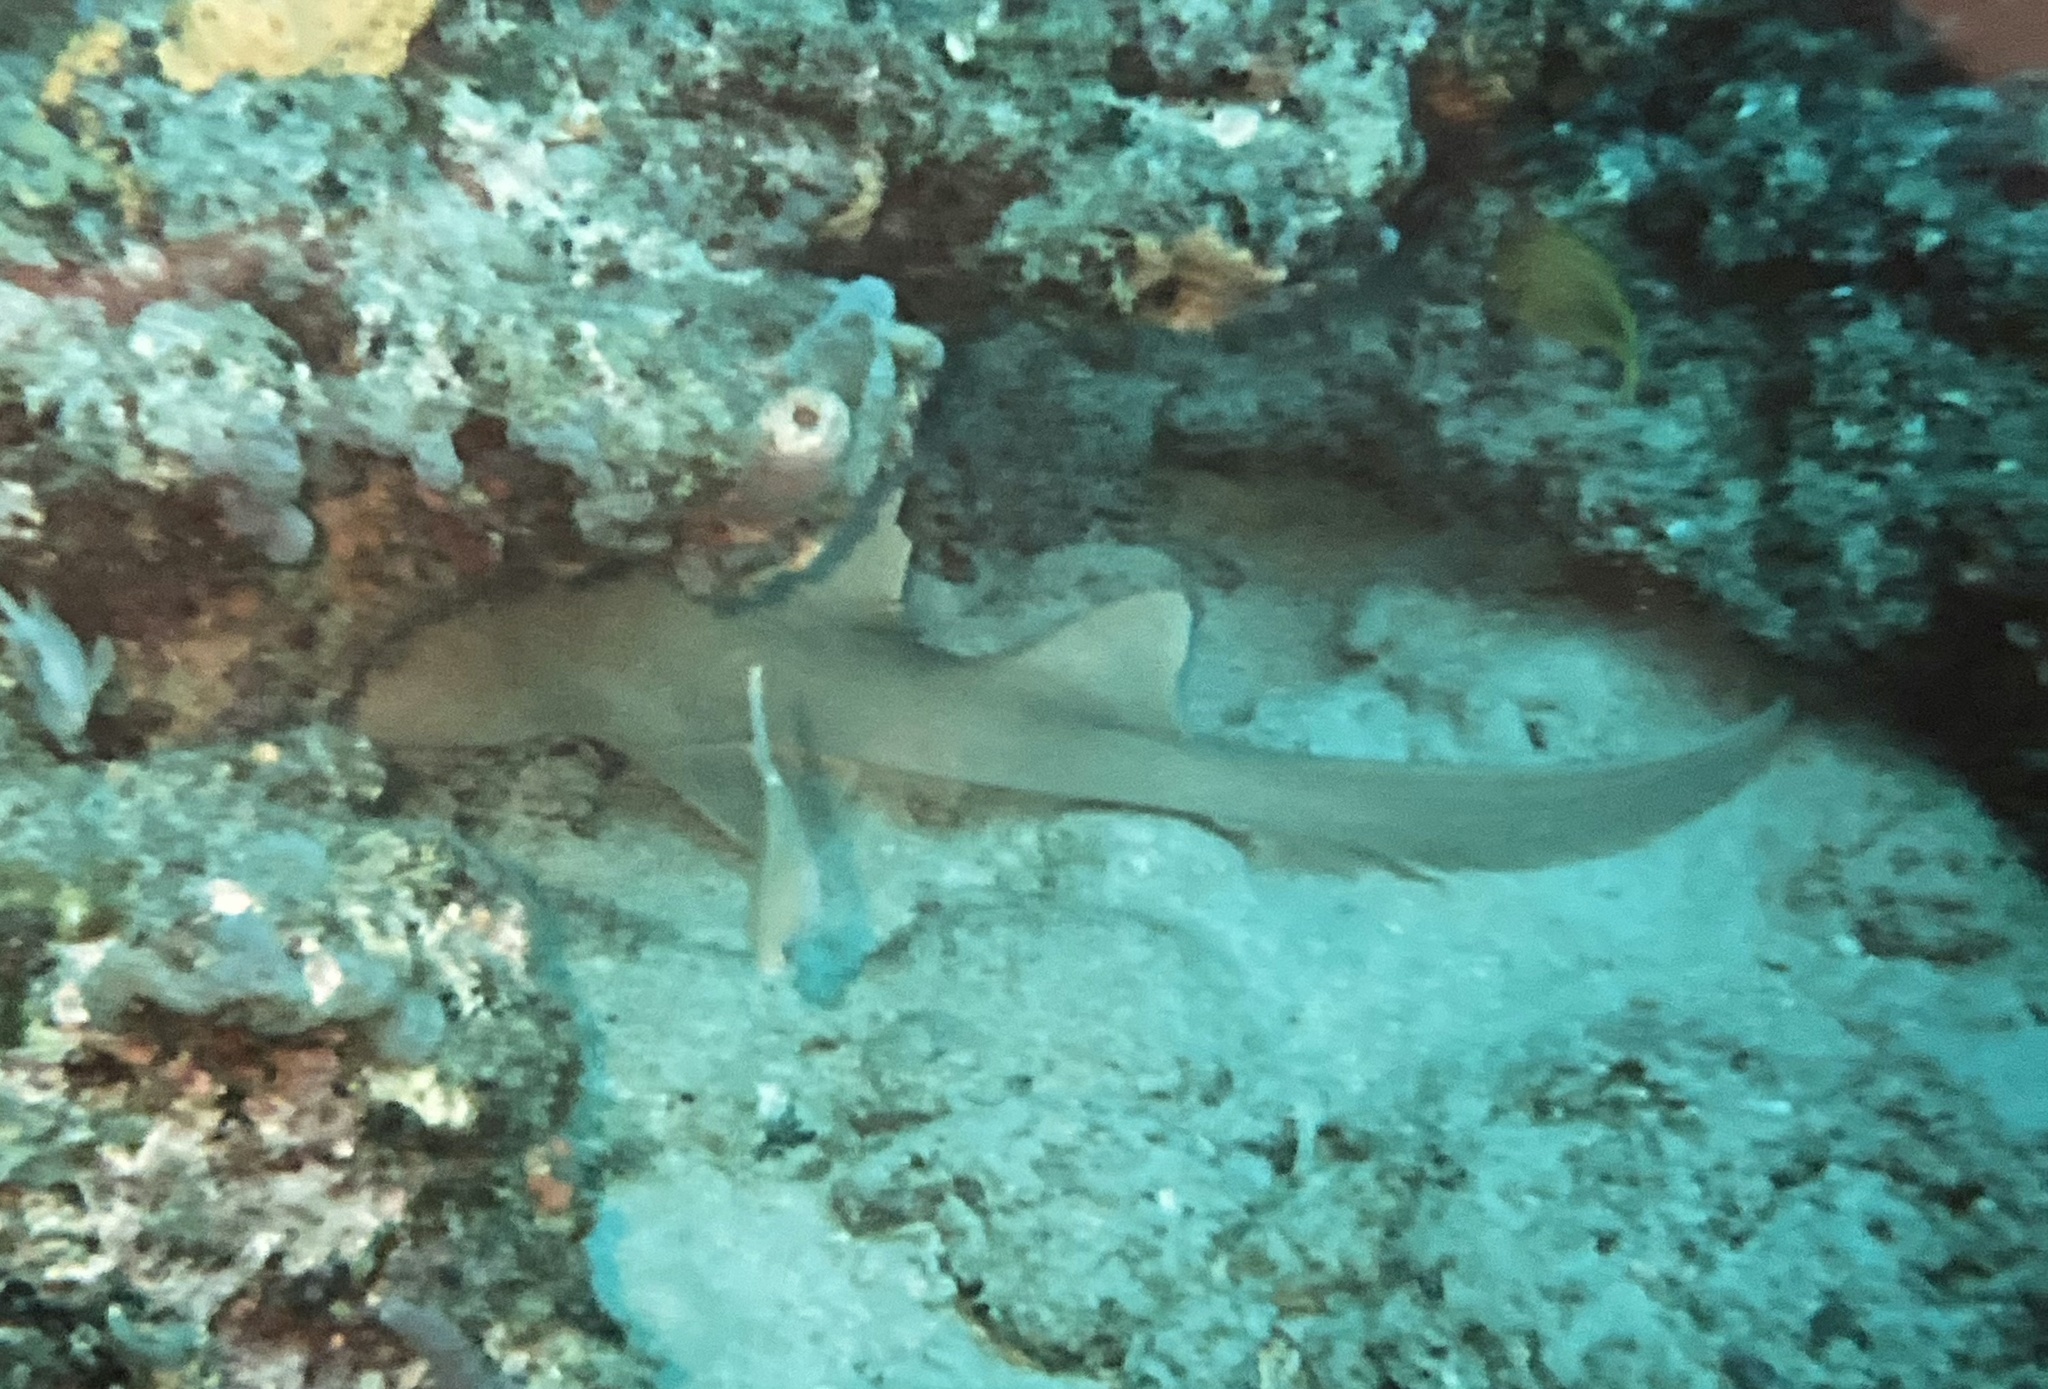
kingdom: Animalia
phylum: Chordata
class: Elasmobranchii
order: Orectolobiformes
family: Ginglymostomatidae
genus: Ginglymostoma
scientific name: Ginglymostoma cirratum
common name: Nurse shark
